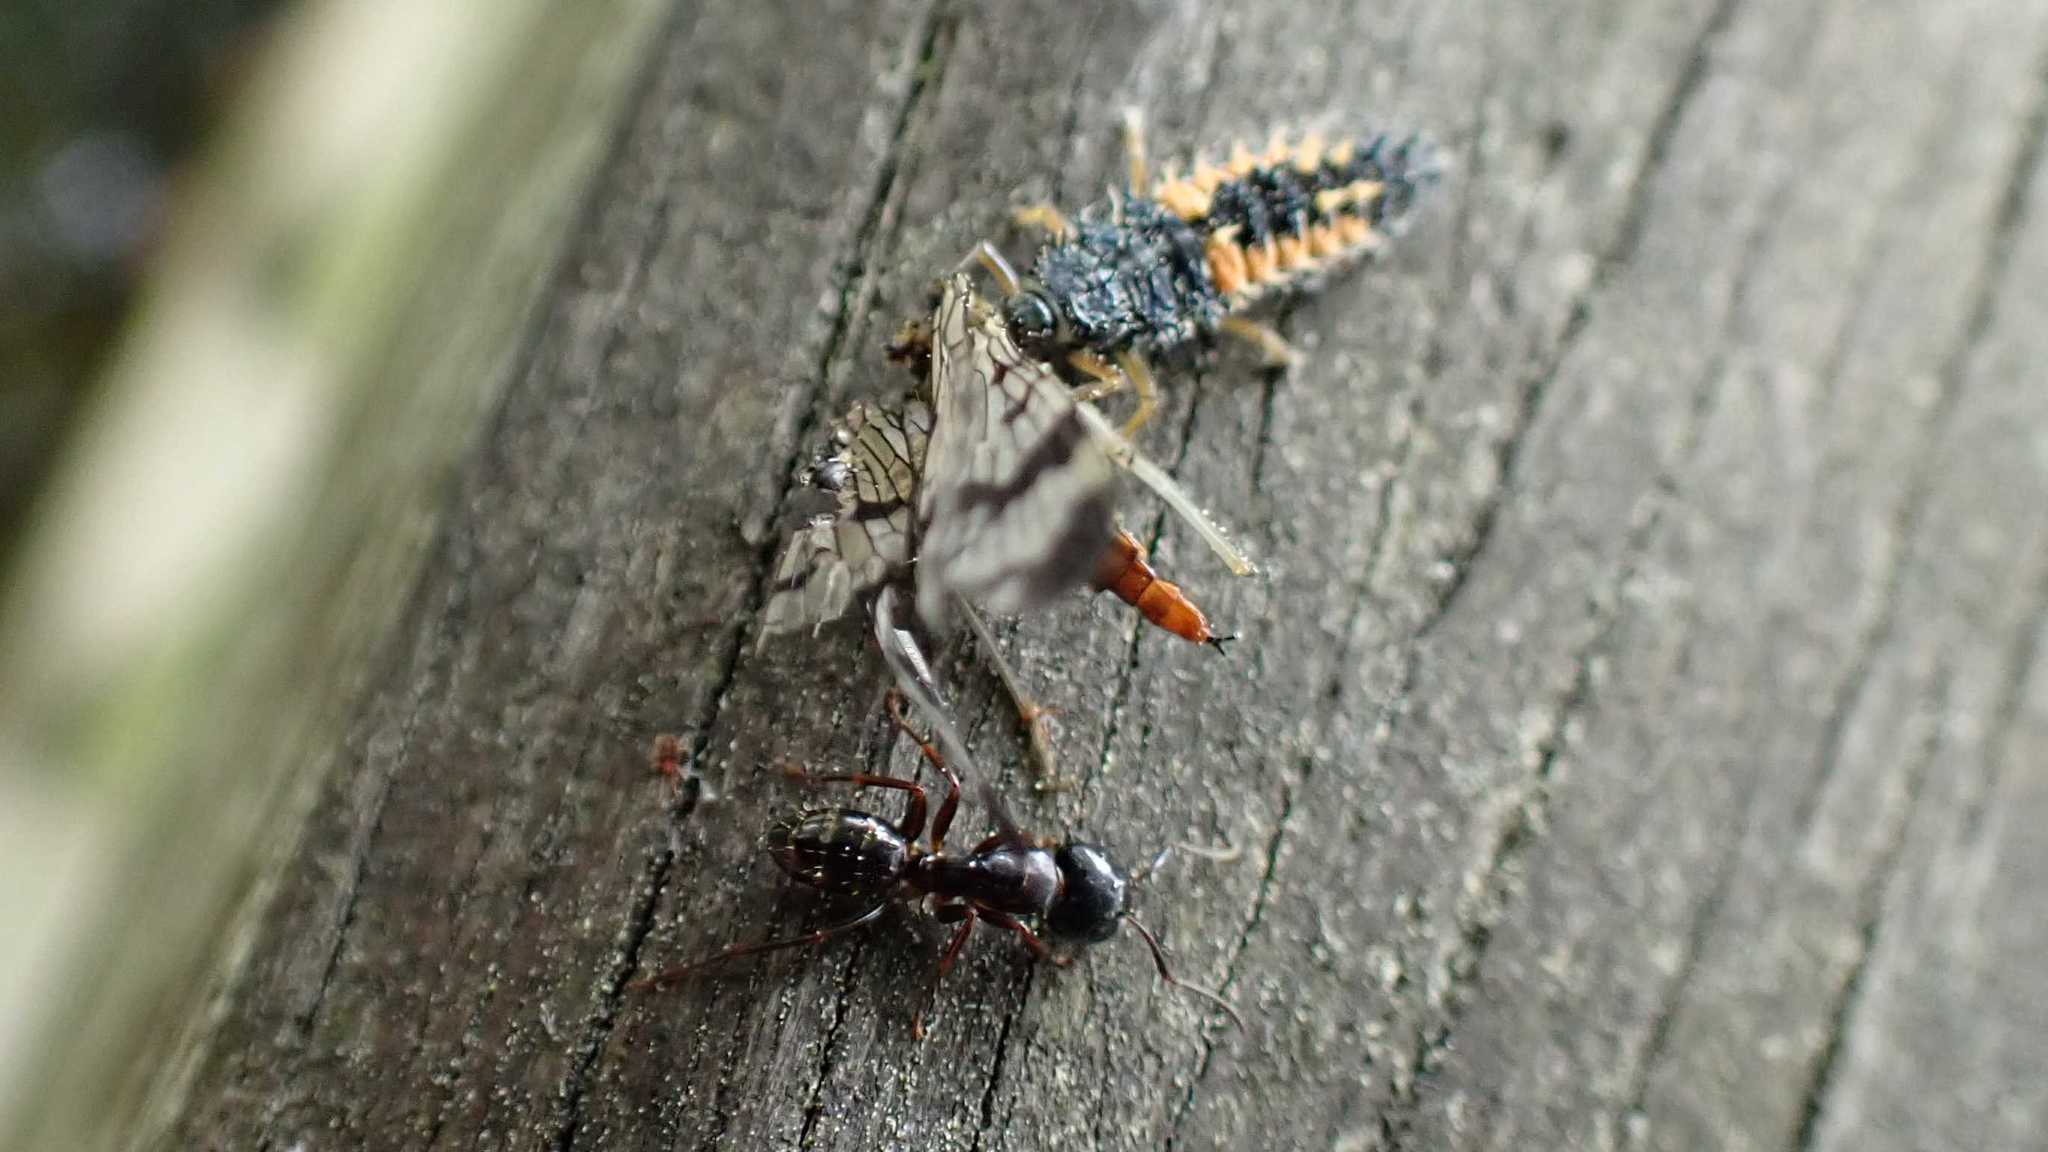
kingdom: Animalia
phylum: Arthropoda
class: Insecta
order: Hymenoptera
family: Formicidae
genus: Camponotus
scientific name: Camponotus fallax
